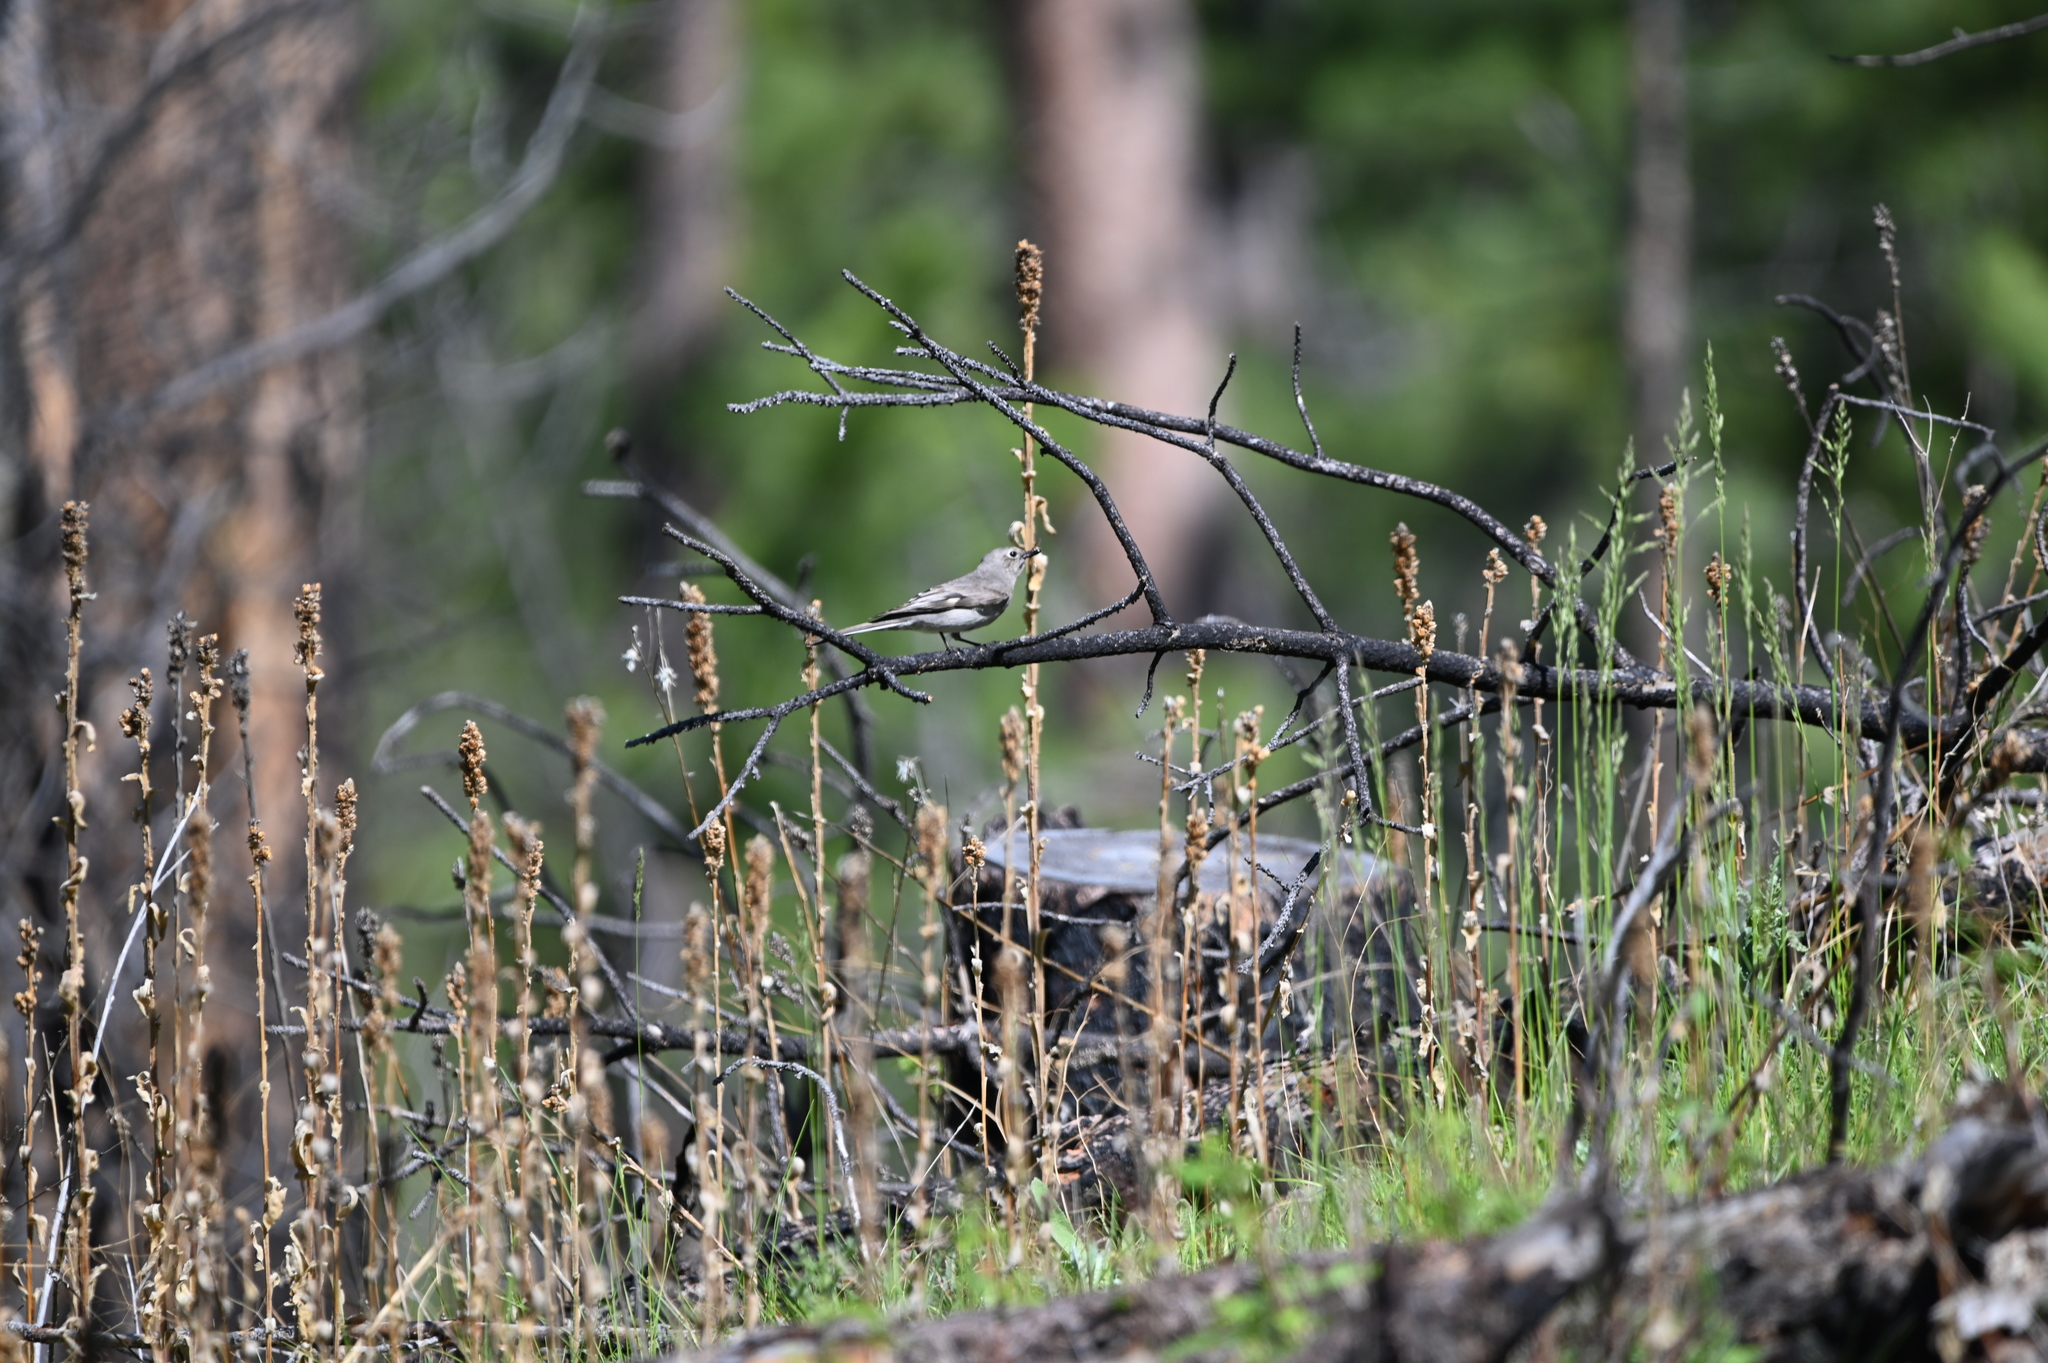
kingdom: Animalia
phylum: Chordata
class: Aves
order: Passeriformes
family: Turdidae
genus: Myadestes
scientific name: Myadestes townsendi
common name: Townsend's solitaire
